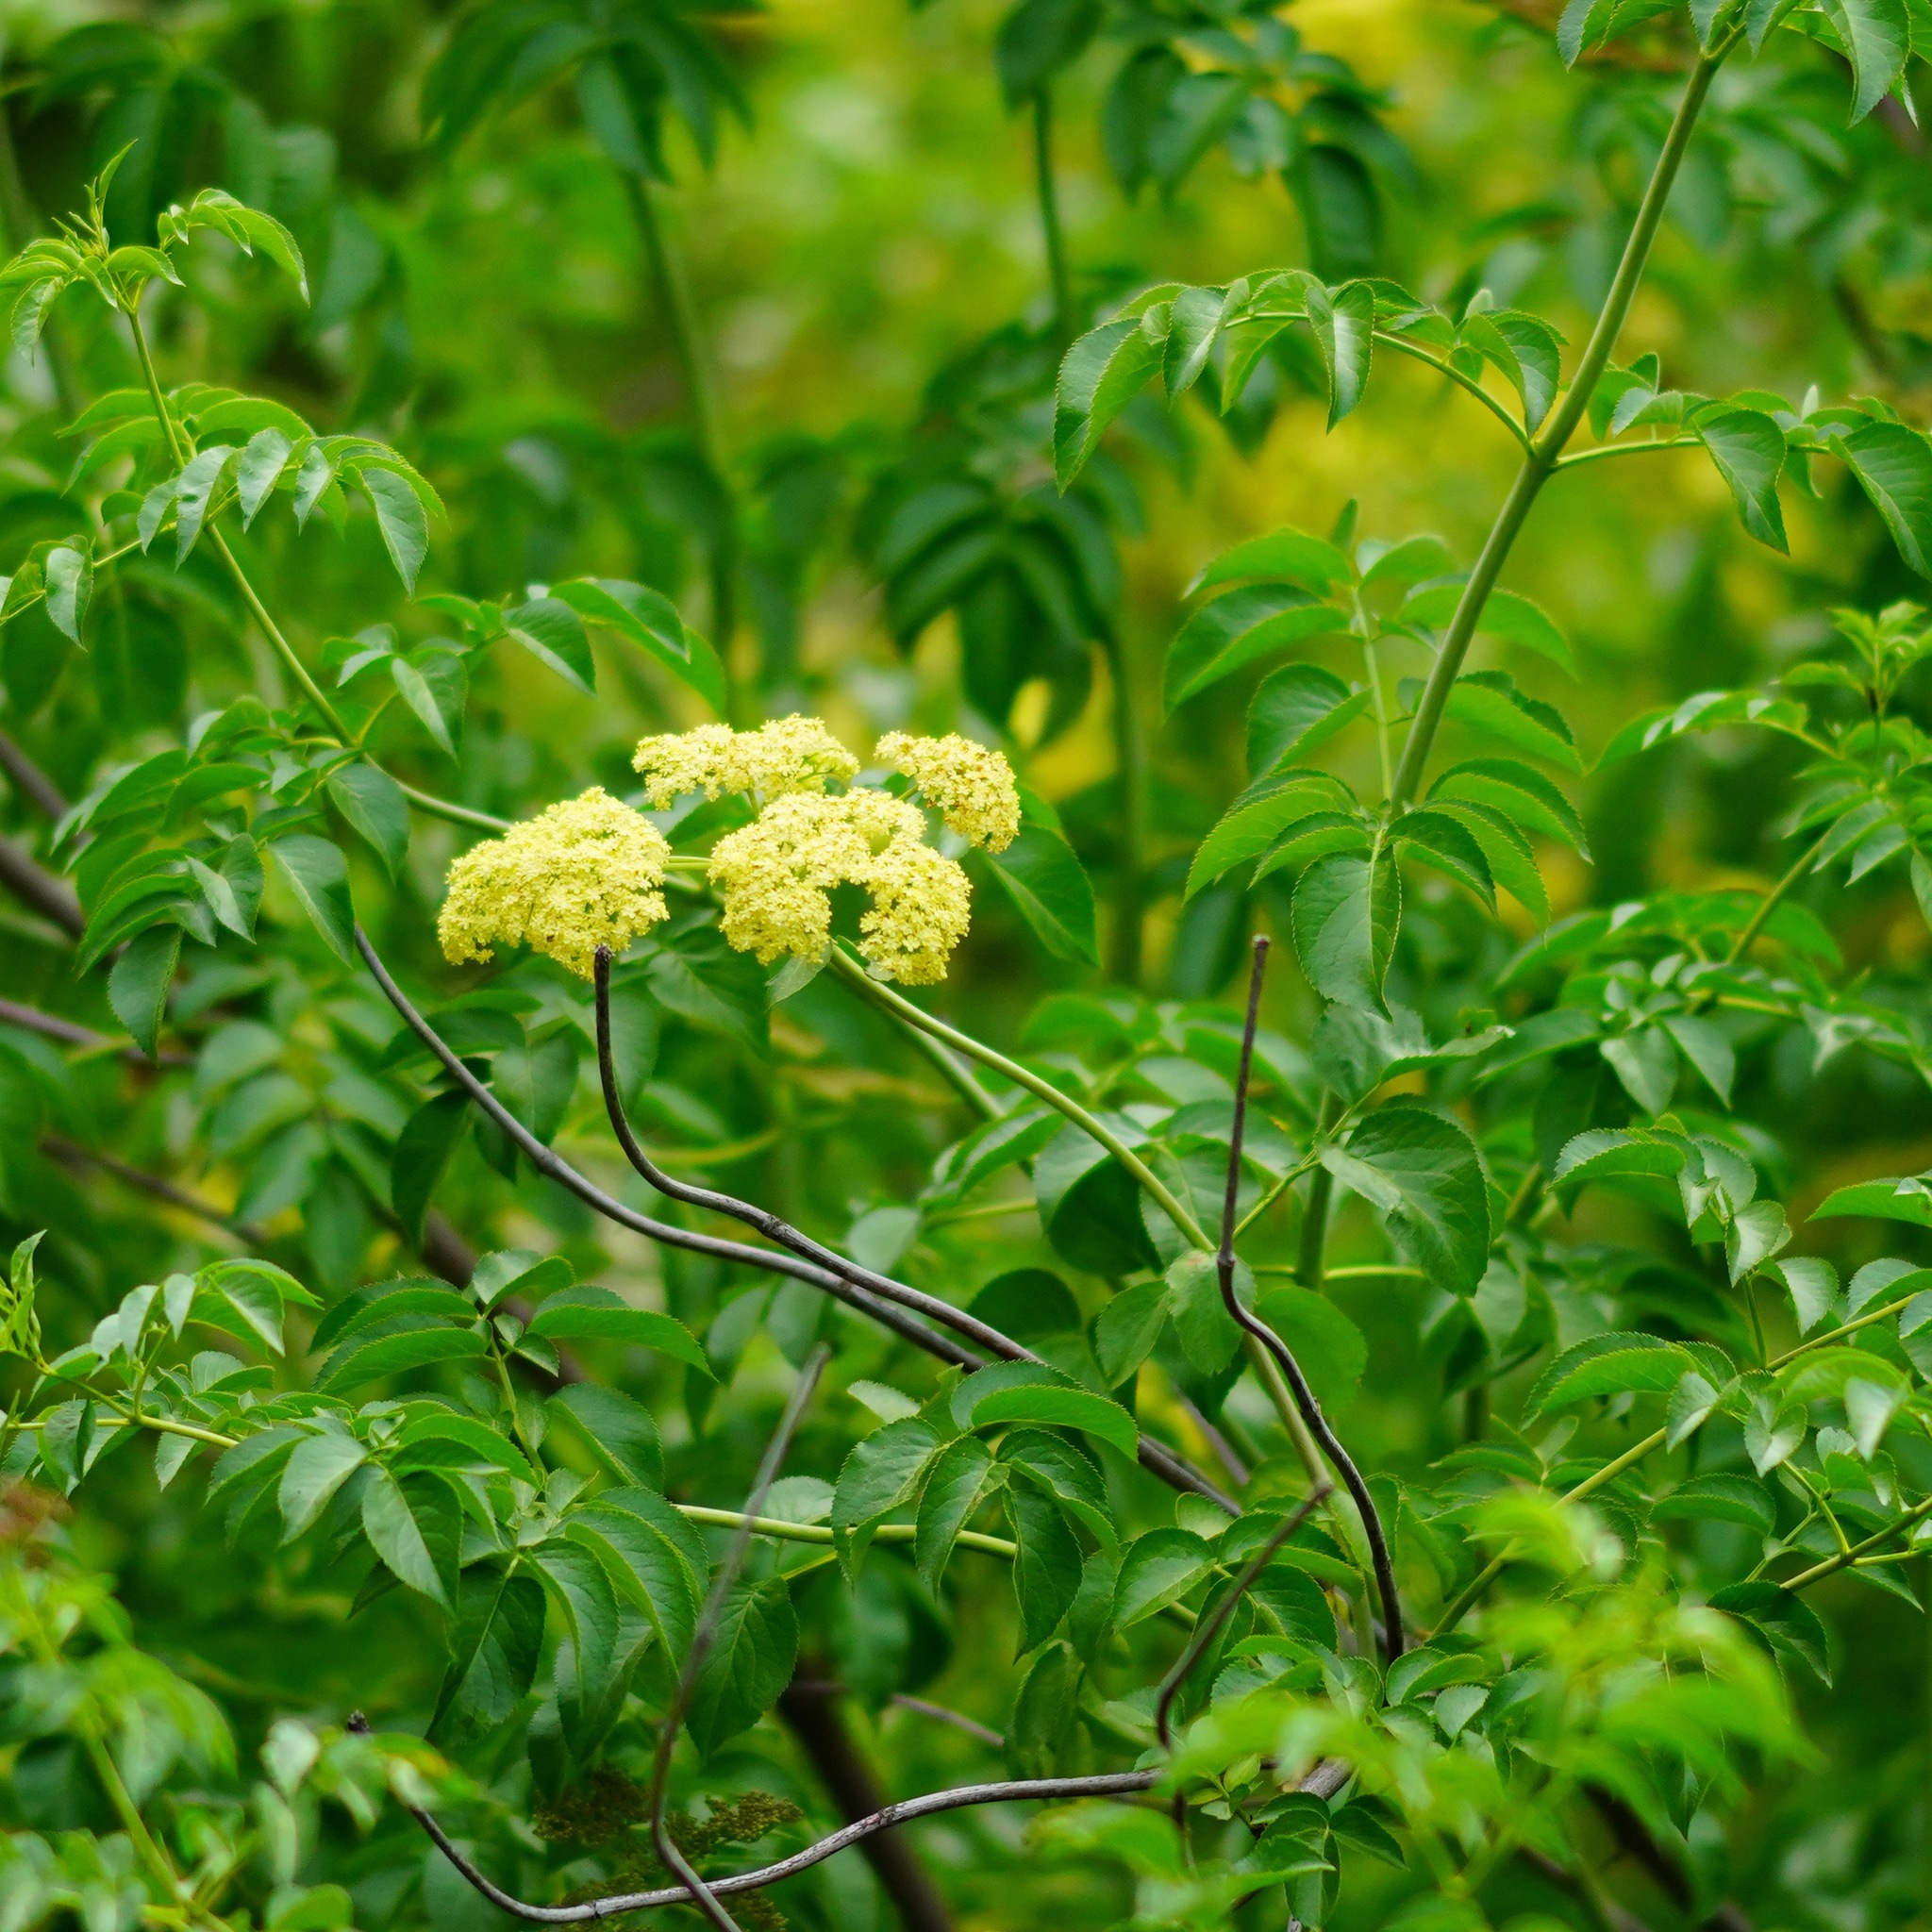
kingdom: Plantae
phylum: Tracheophyta
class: Magnoliopsida
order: Dipsacales
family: Viburnaceae
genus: Sambucus
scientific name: Sambucus cerulea
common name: Blue elder
